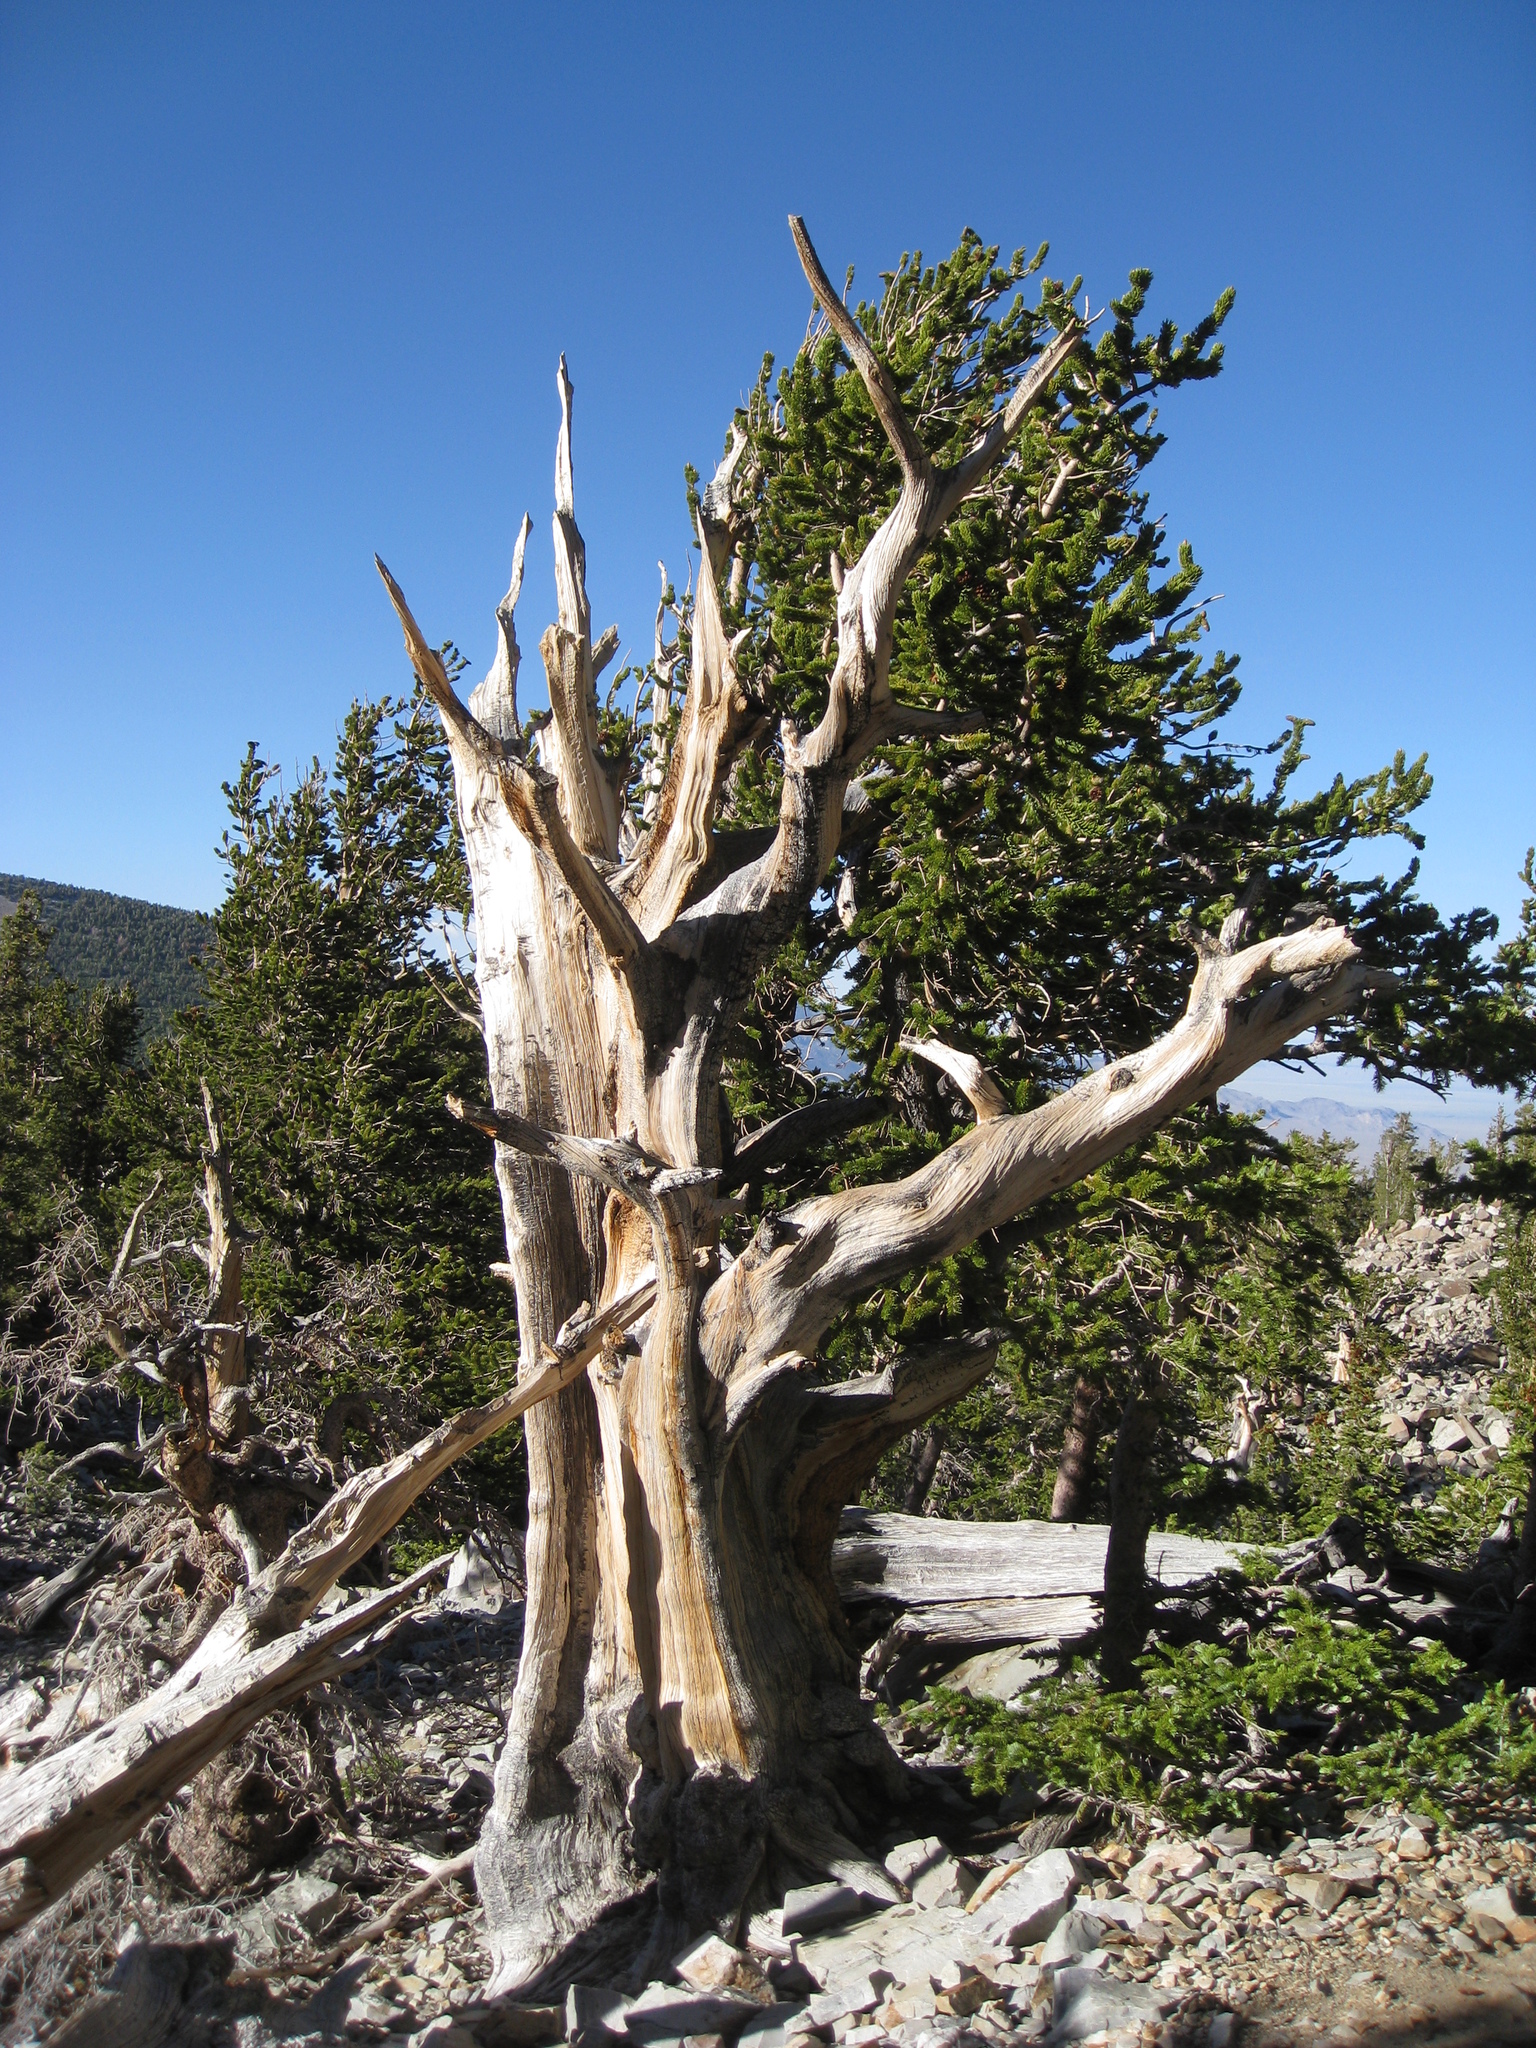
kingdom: Plantae
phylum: Tracheophyta
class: Pinopsida
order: Pinales
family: Pinaceae
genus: Pinus
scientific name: Pinus longaeva
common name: Intermountain bristlecone pine
